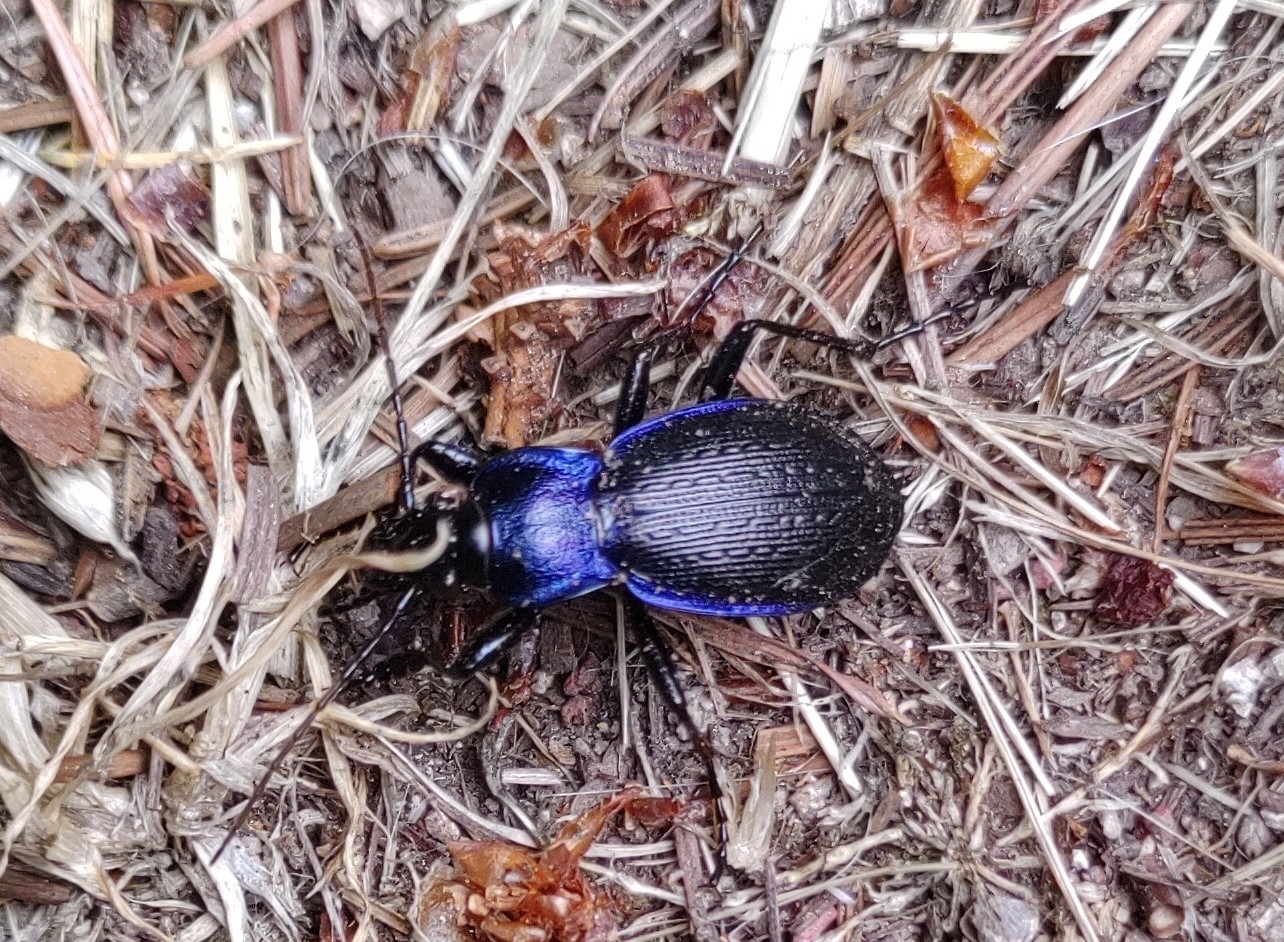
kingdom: Animalia
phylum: Arthropoda
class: Insecta
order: Coleoptera
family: Carabidae
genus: Carabus
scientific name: Carabus problematicus
